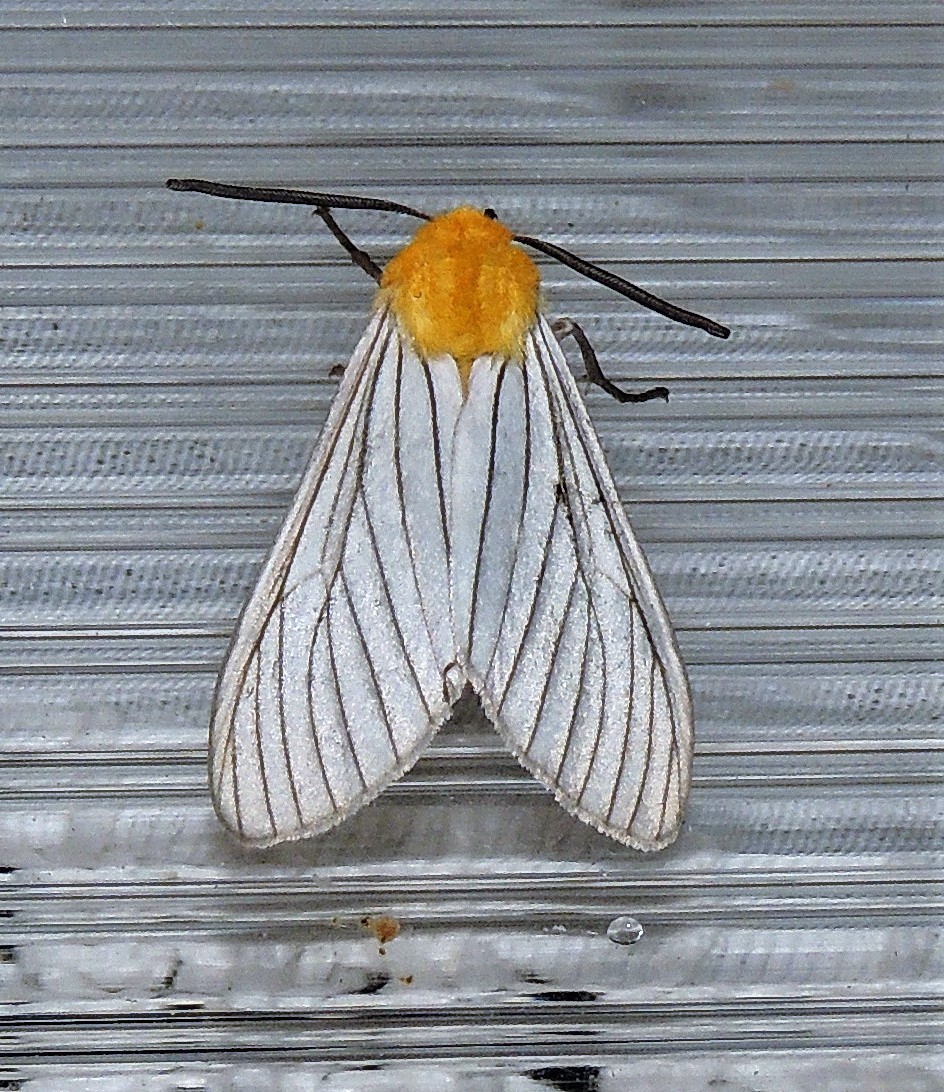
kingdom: Animalia
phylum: Arthropoda
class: Insecta
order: Lepidoptera
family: Erebidae
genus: Pseudischnocampa
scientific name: Pseudischnocampa nigridorsata
